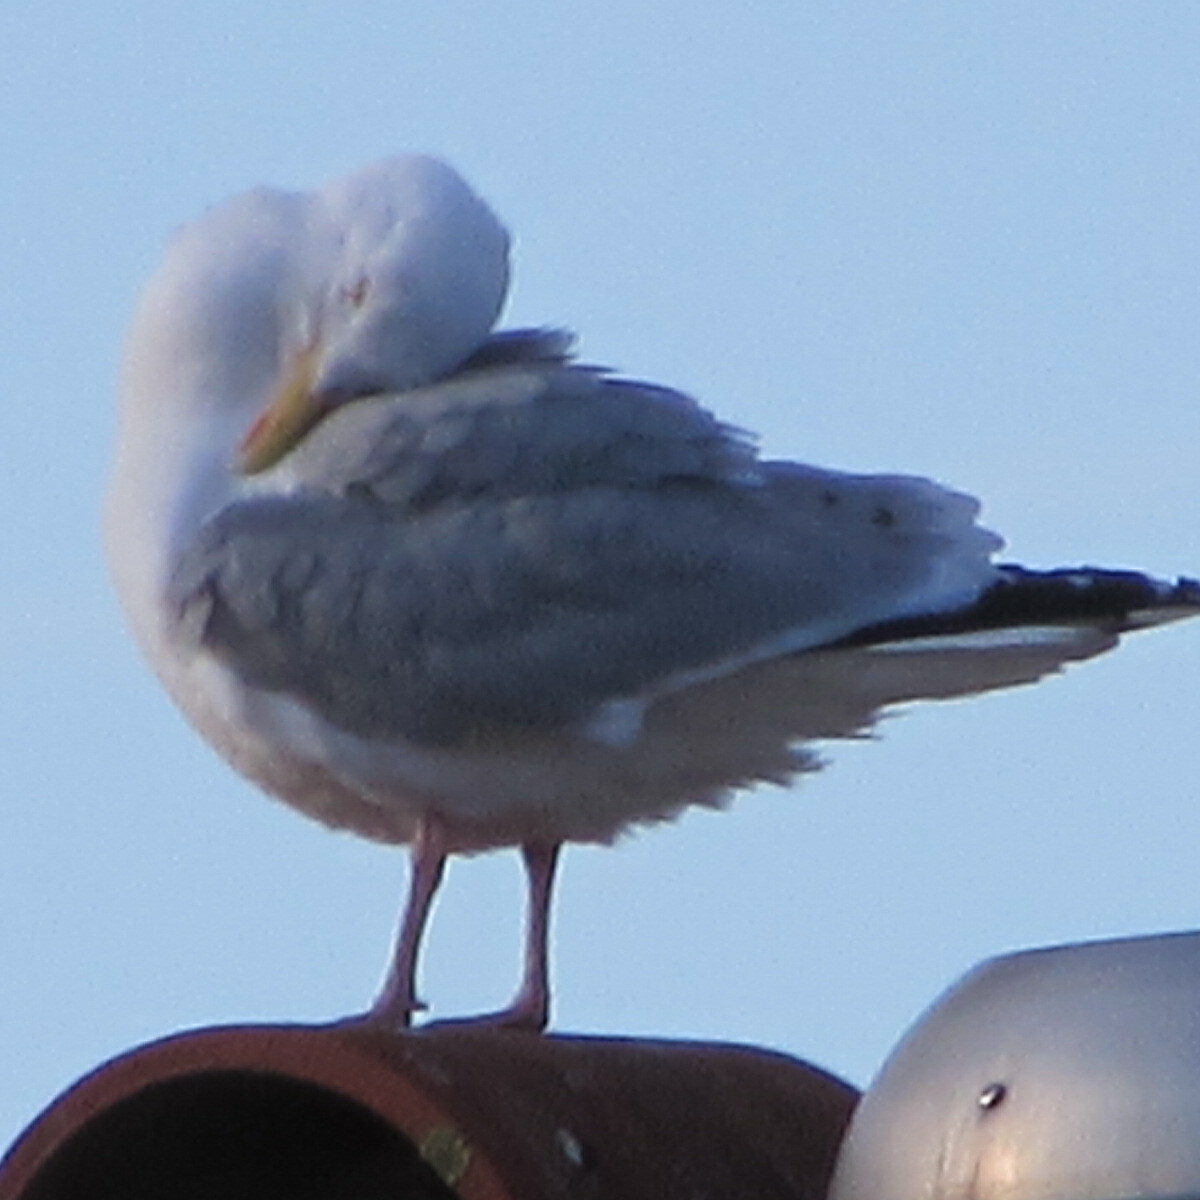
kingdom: Animalia
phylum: Chordata
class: Aves
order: Charadriiformes
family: Laridae
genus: Larus
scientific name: Larus argentatus
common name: Herring gull
